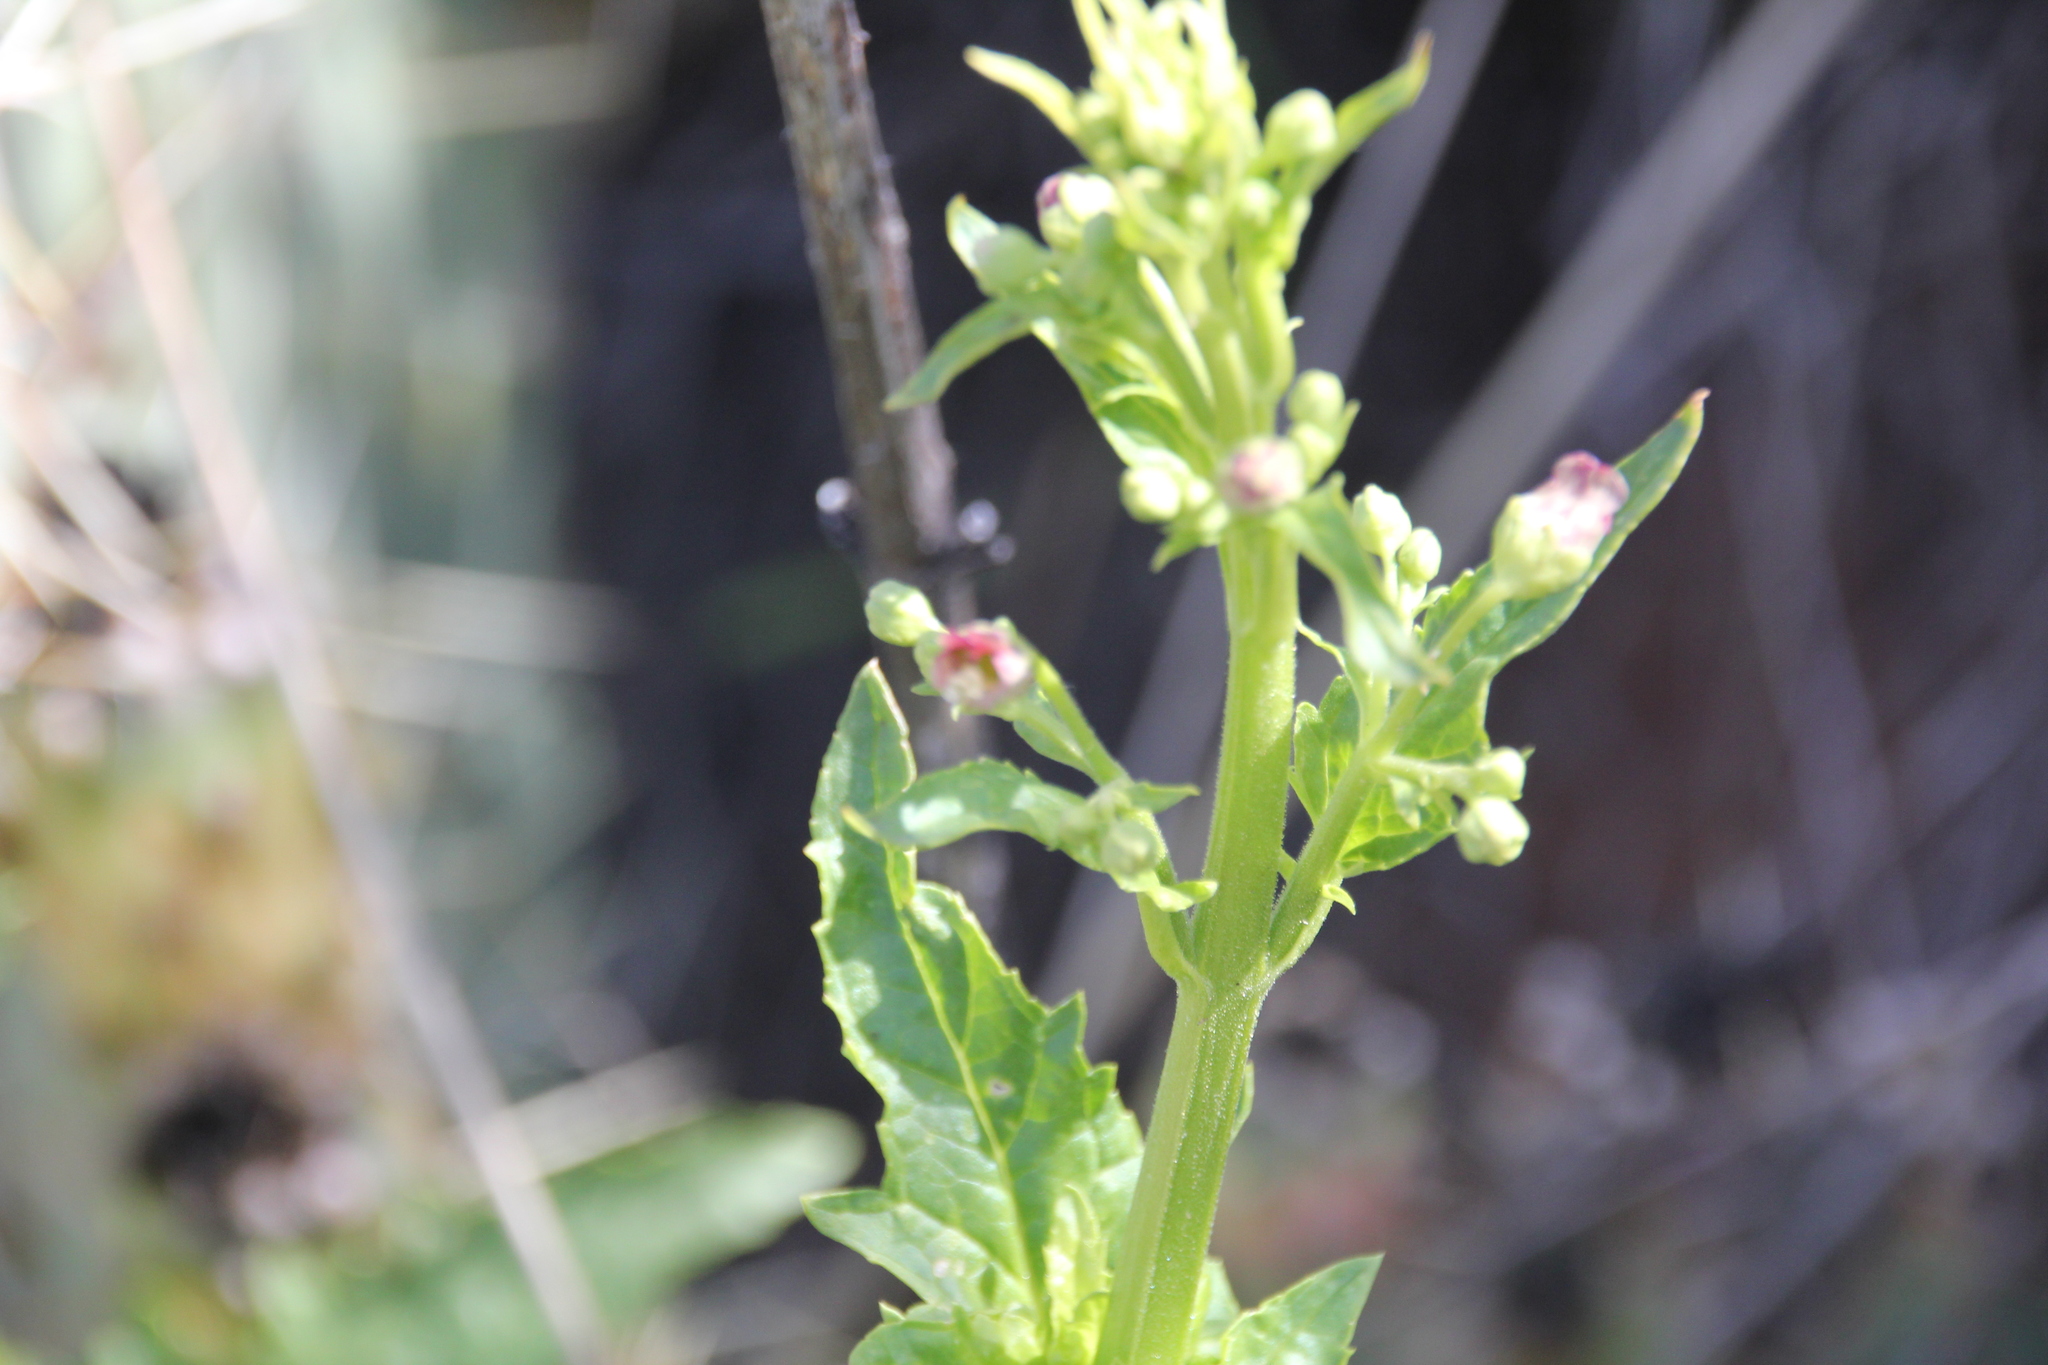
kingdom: Plantae
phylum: Tracheophyta
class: Magnoliopsida
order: Lamiales
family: Scrophulariaceae
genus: Scrophularia
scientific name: Scrophularia californica
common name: California figwort
